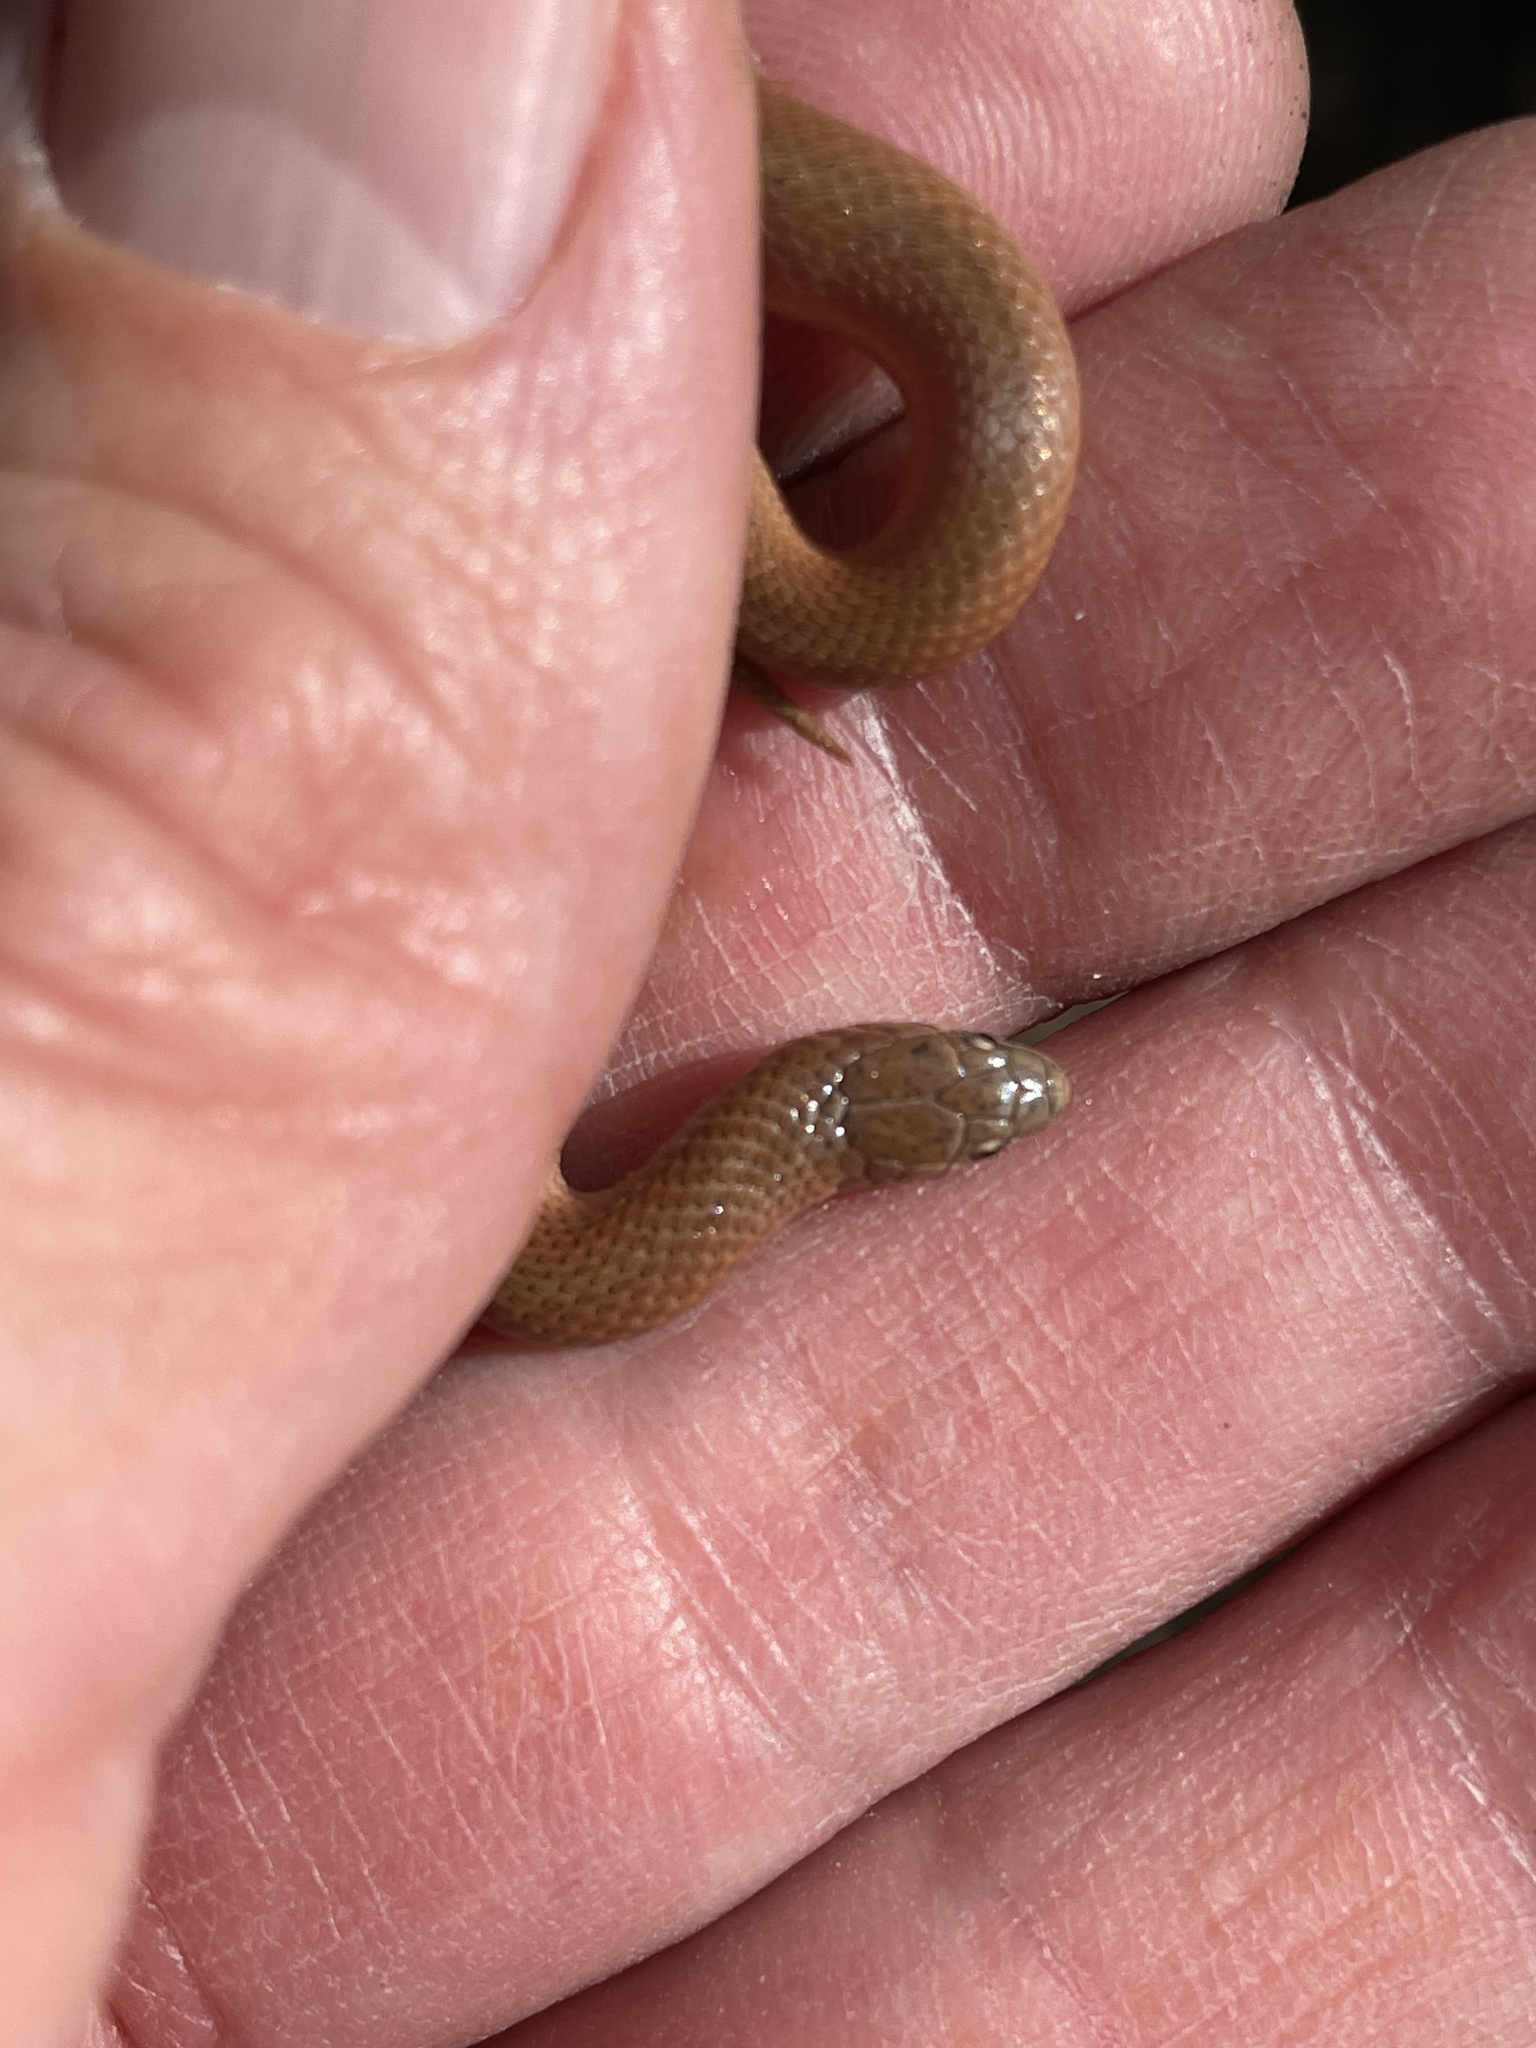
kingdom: Animalia
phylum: Chordata
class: Squamata
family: Colubridae
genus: Virginia
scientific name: Virginia valeriae
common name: Smooth earth snake
